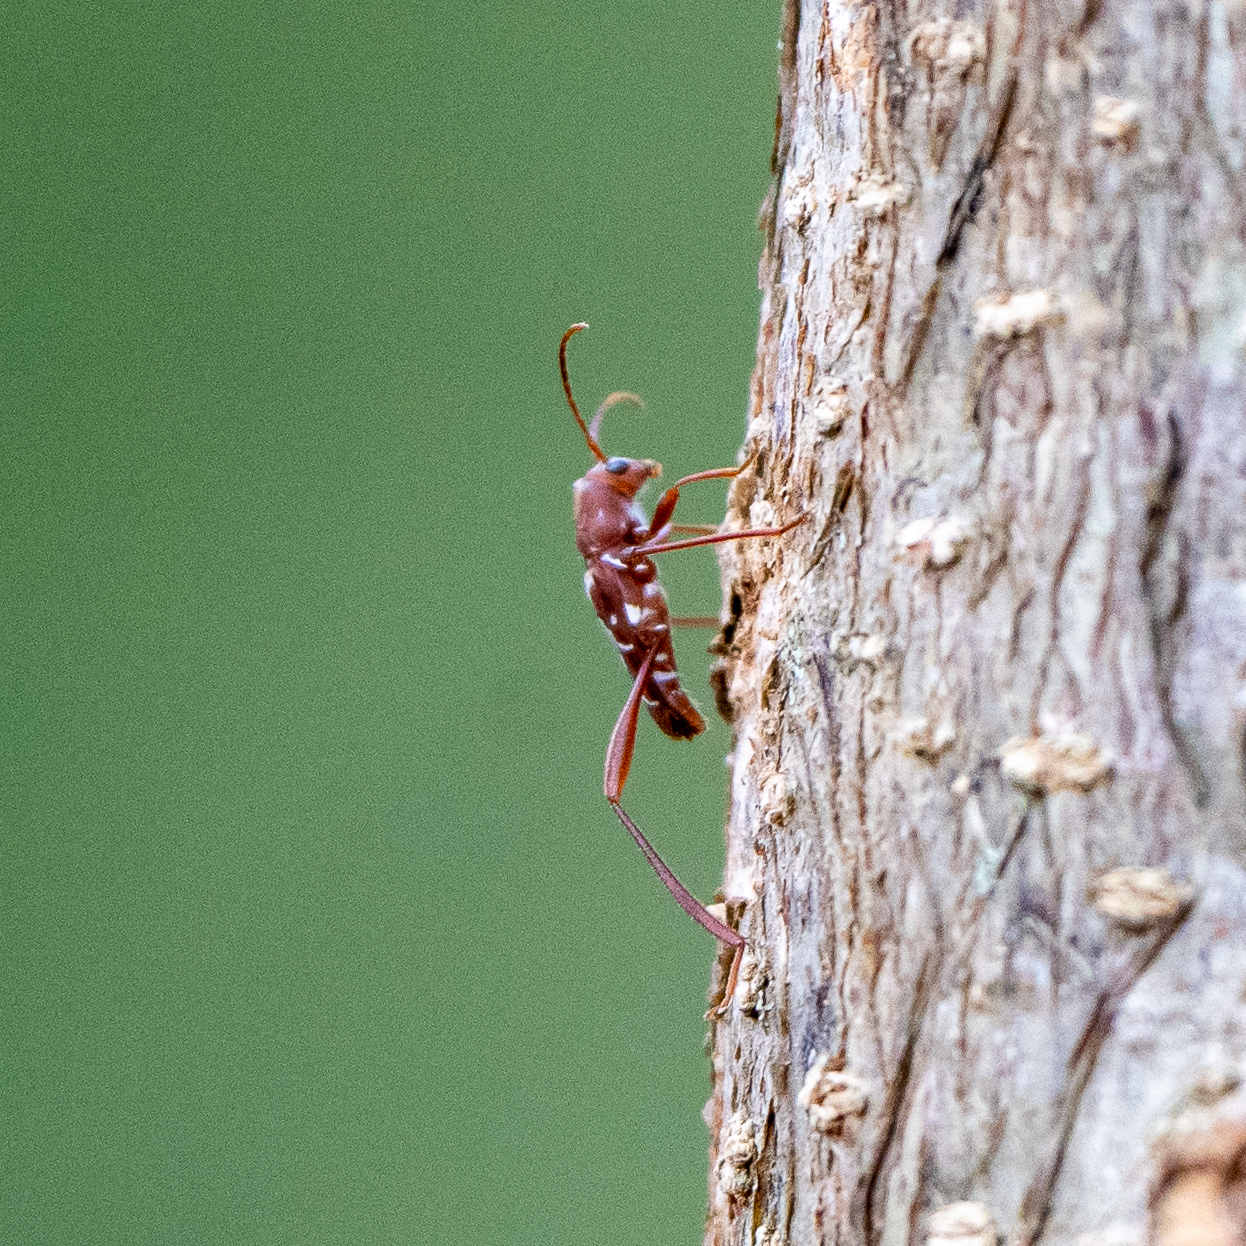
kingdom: Animalia
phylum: Arthropoda
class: Insecta
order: Coleoptera
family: Cerambycidae
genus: Neoclytus
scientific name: Neoclytus cacicus
